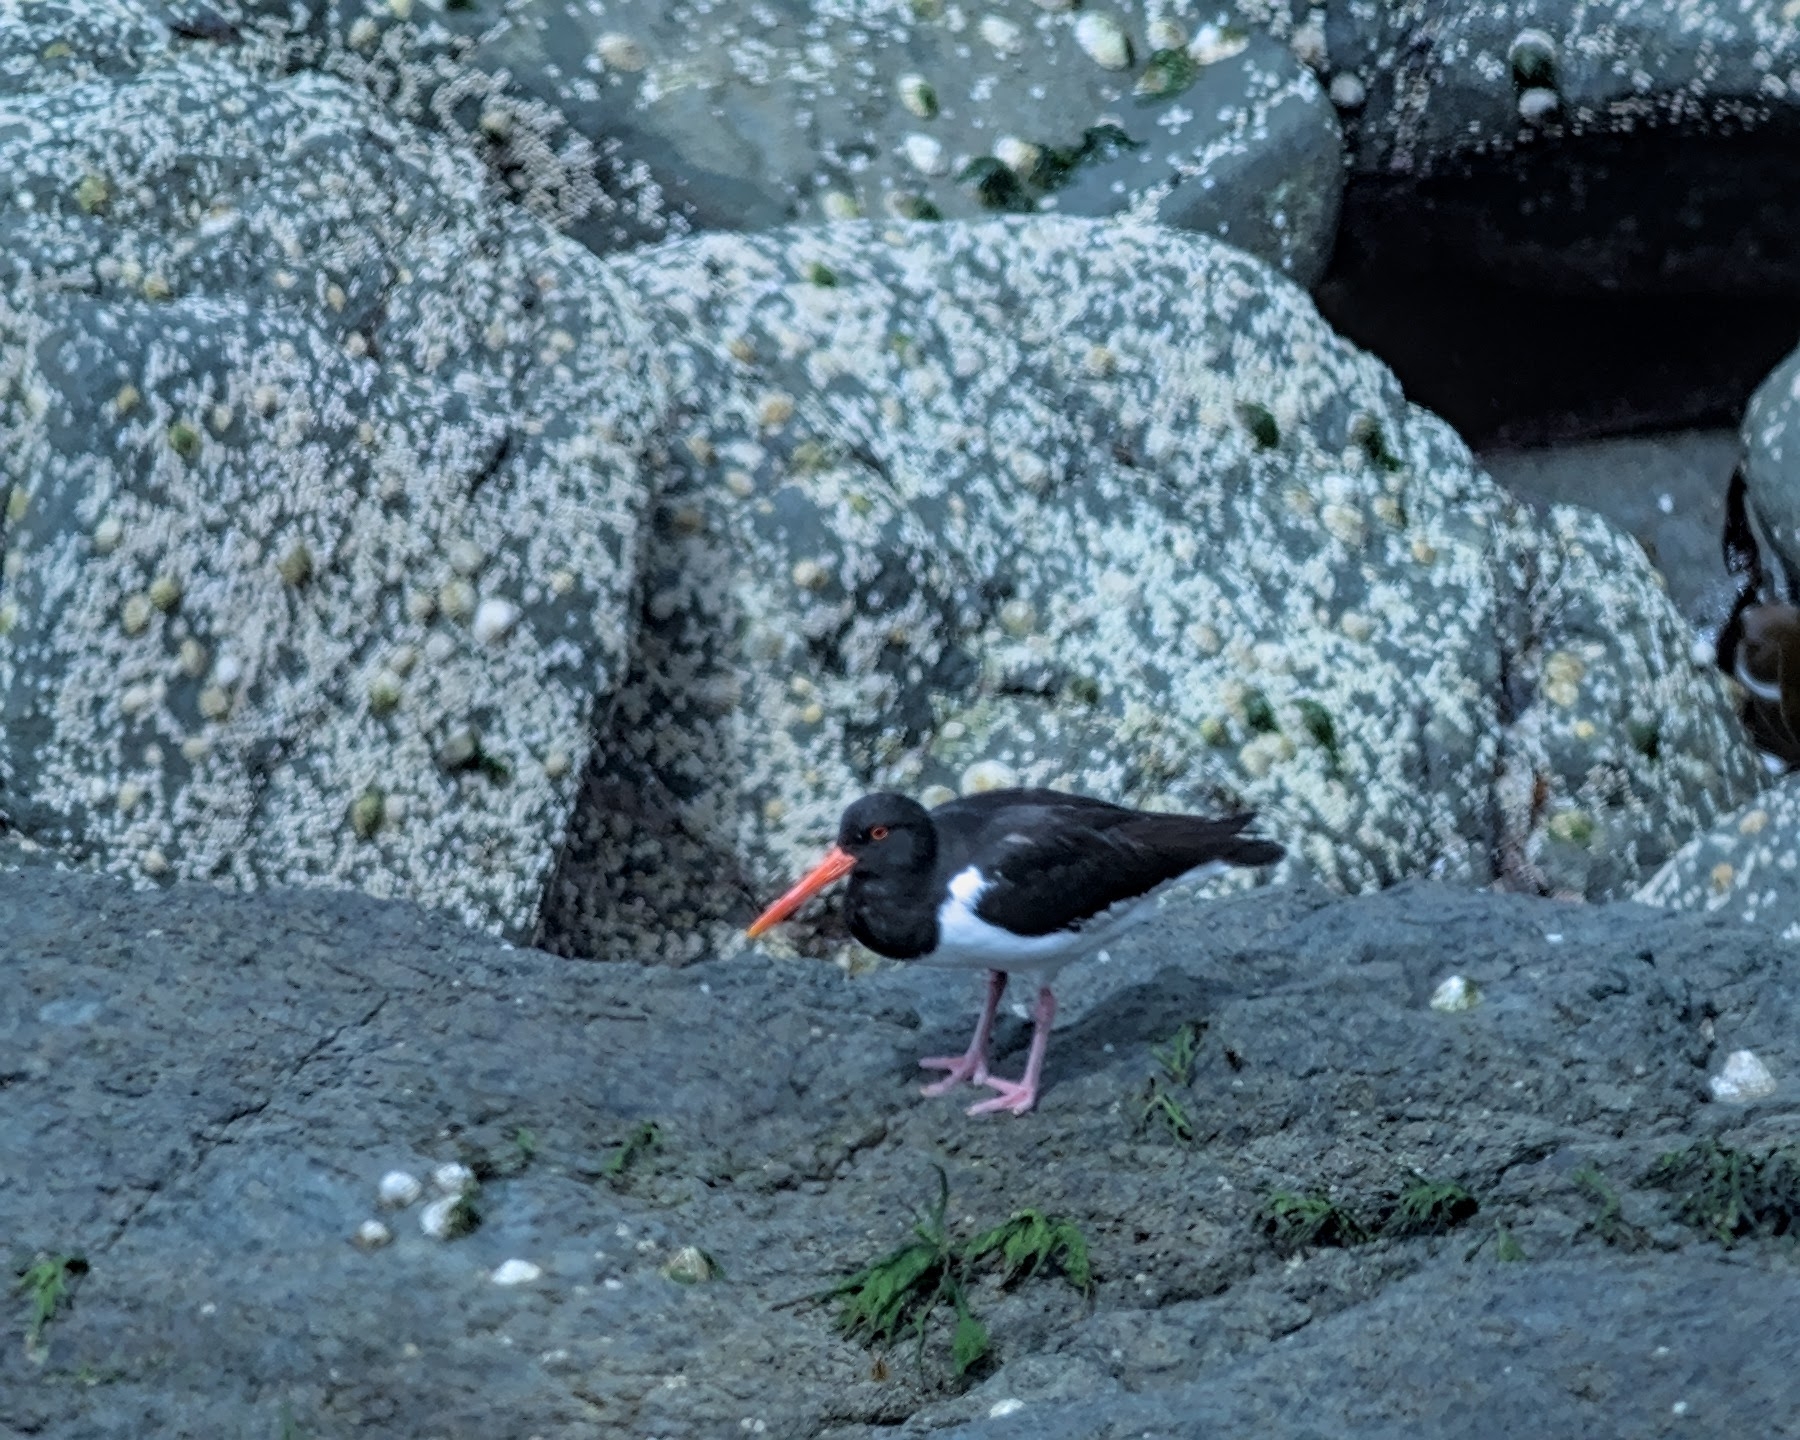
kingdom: Animalia
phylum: Chordata
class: Aves
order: Charadriiformes
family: Haematopodidae
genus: Haematopus
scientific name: Haematopus ostralegus
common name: Eurasian oystercatcher
